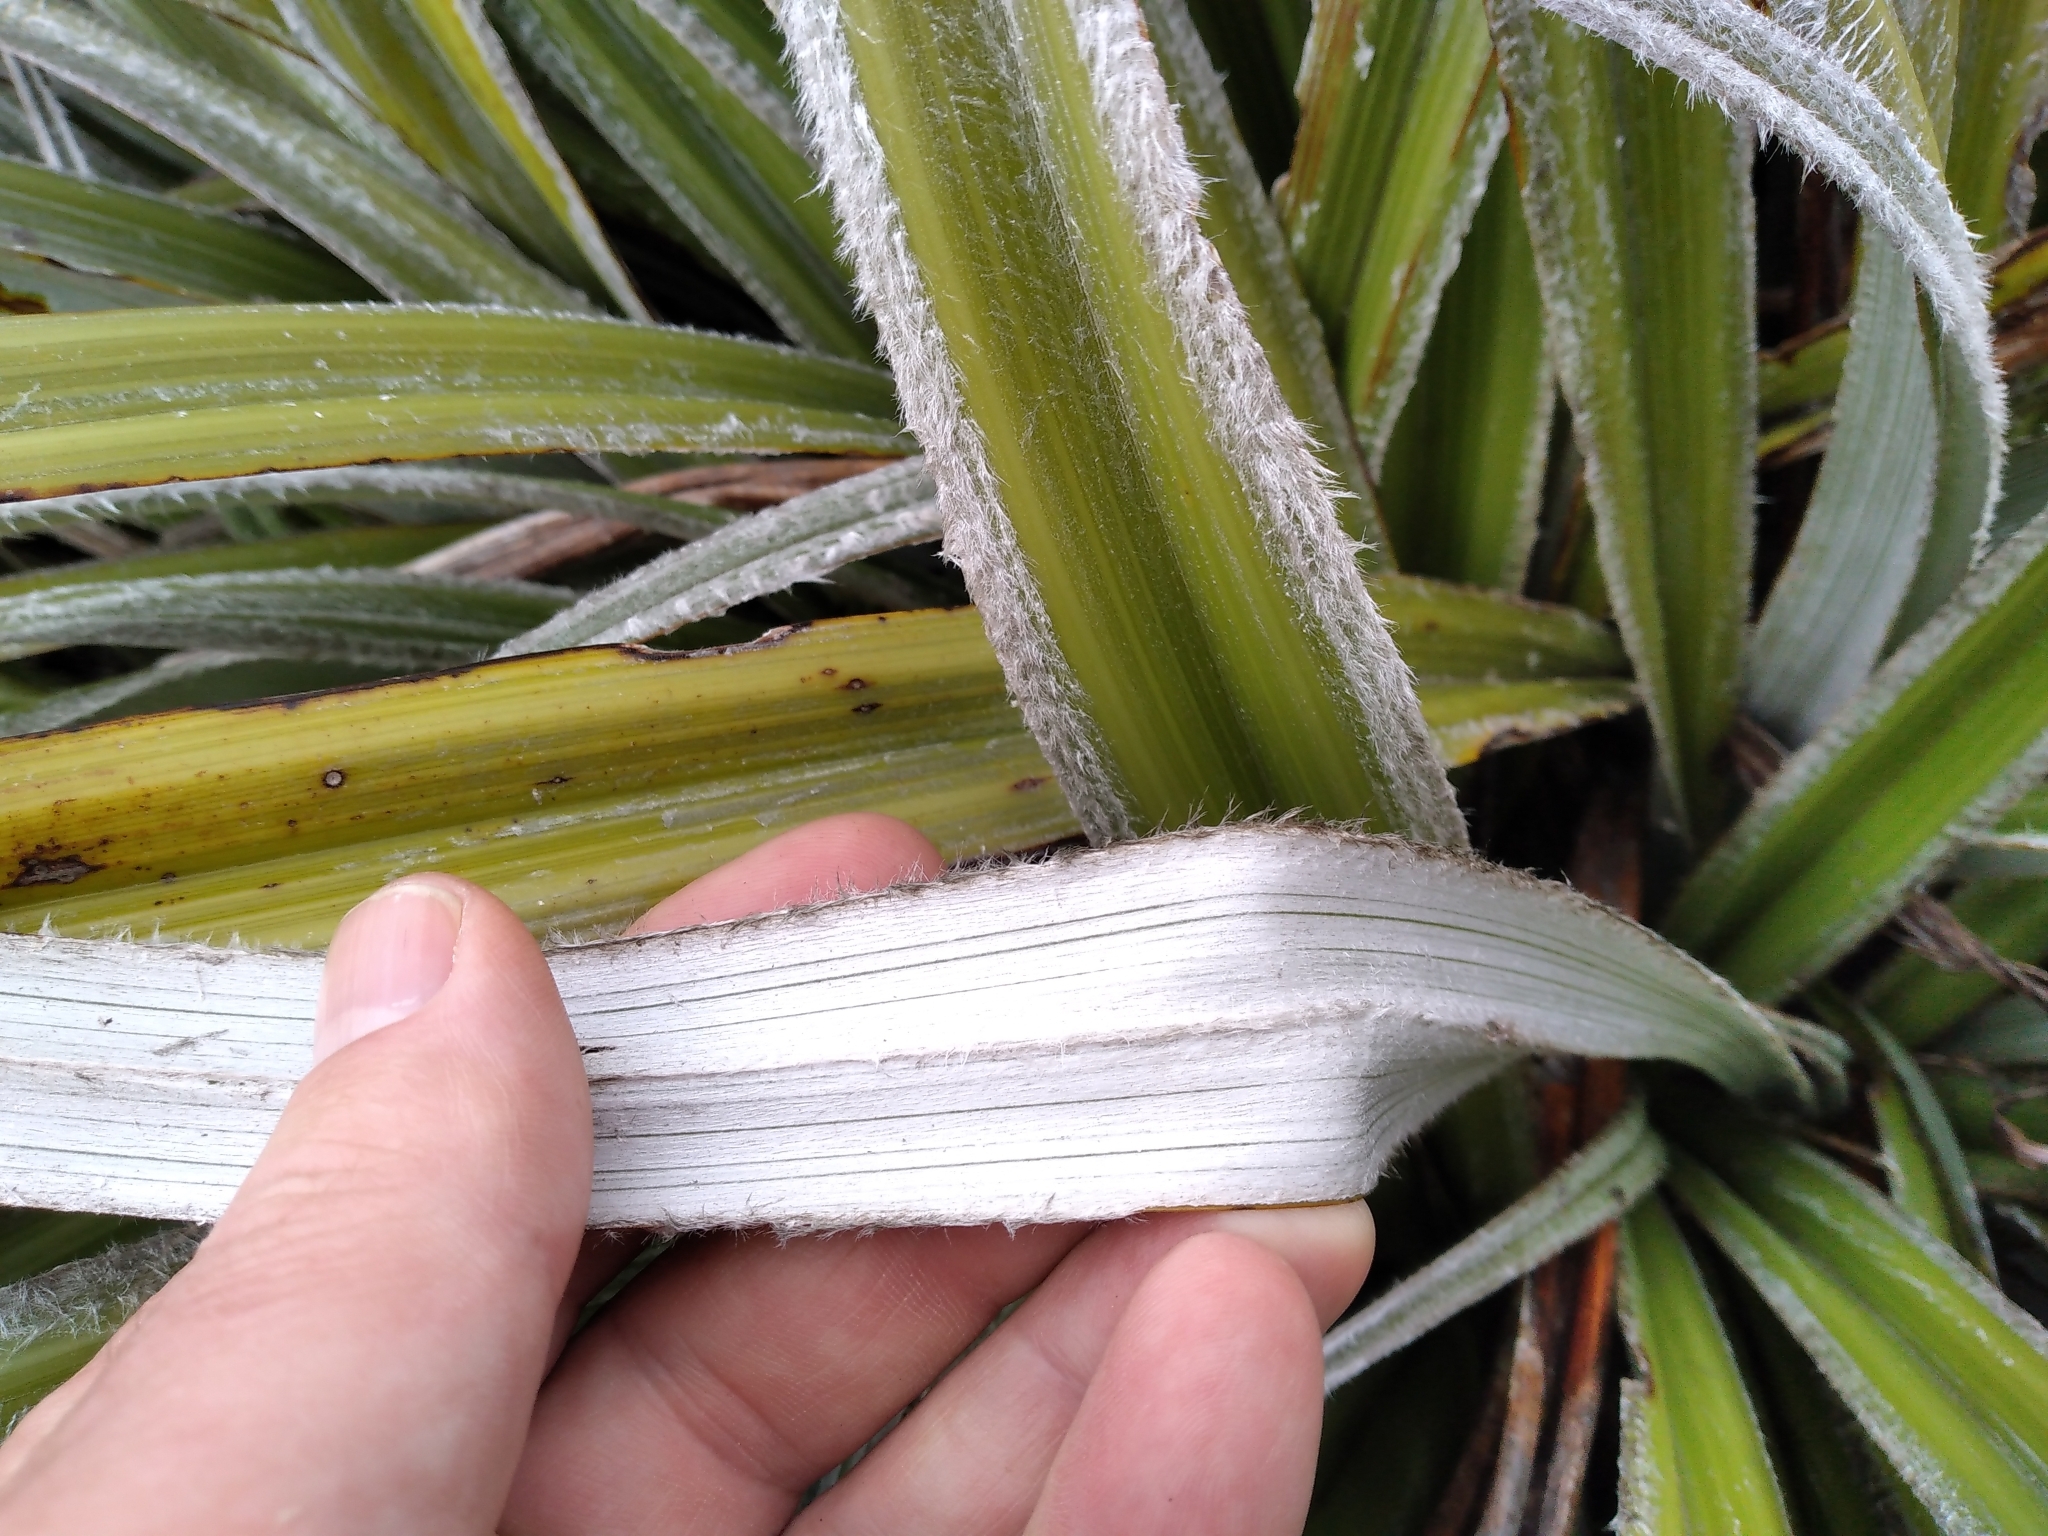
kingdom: Plantae
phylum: Tracheophyta
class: Liliopsida
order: Asparagales
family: Asteliaceae
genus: Astelia
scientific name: Astelia nervosa
